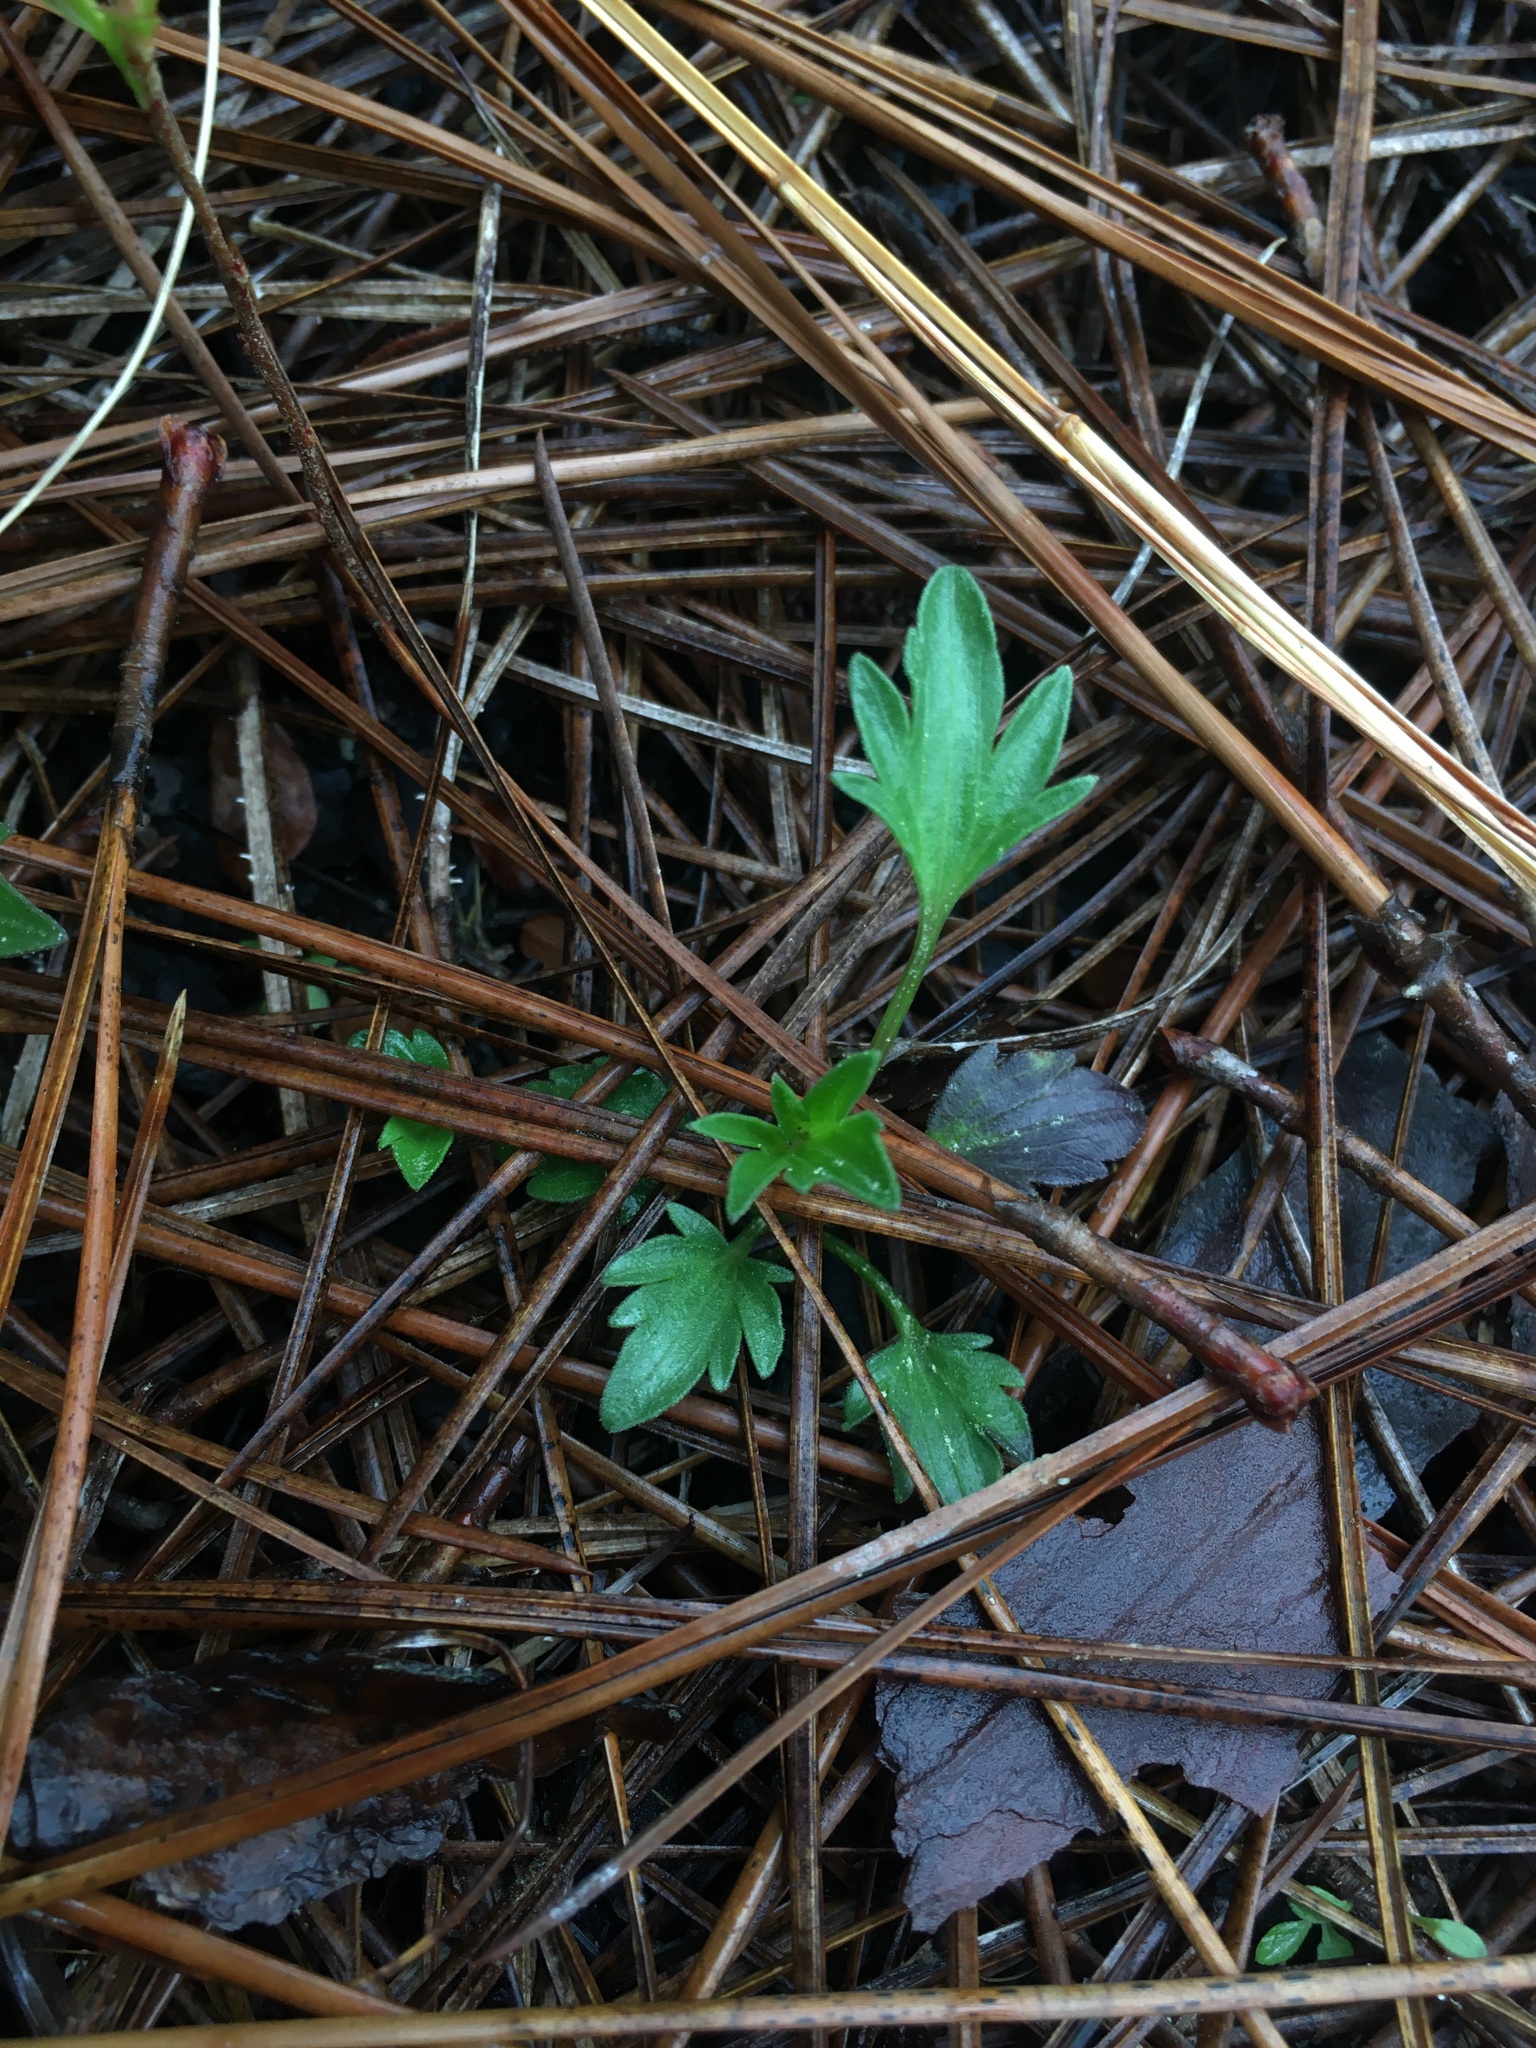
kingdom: Plantae
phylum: Tracheophyta
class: Magnoliopsida
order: Malpighiales
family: Violaceae
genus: Viola
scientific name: Viola pedata
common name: Pansy violet
